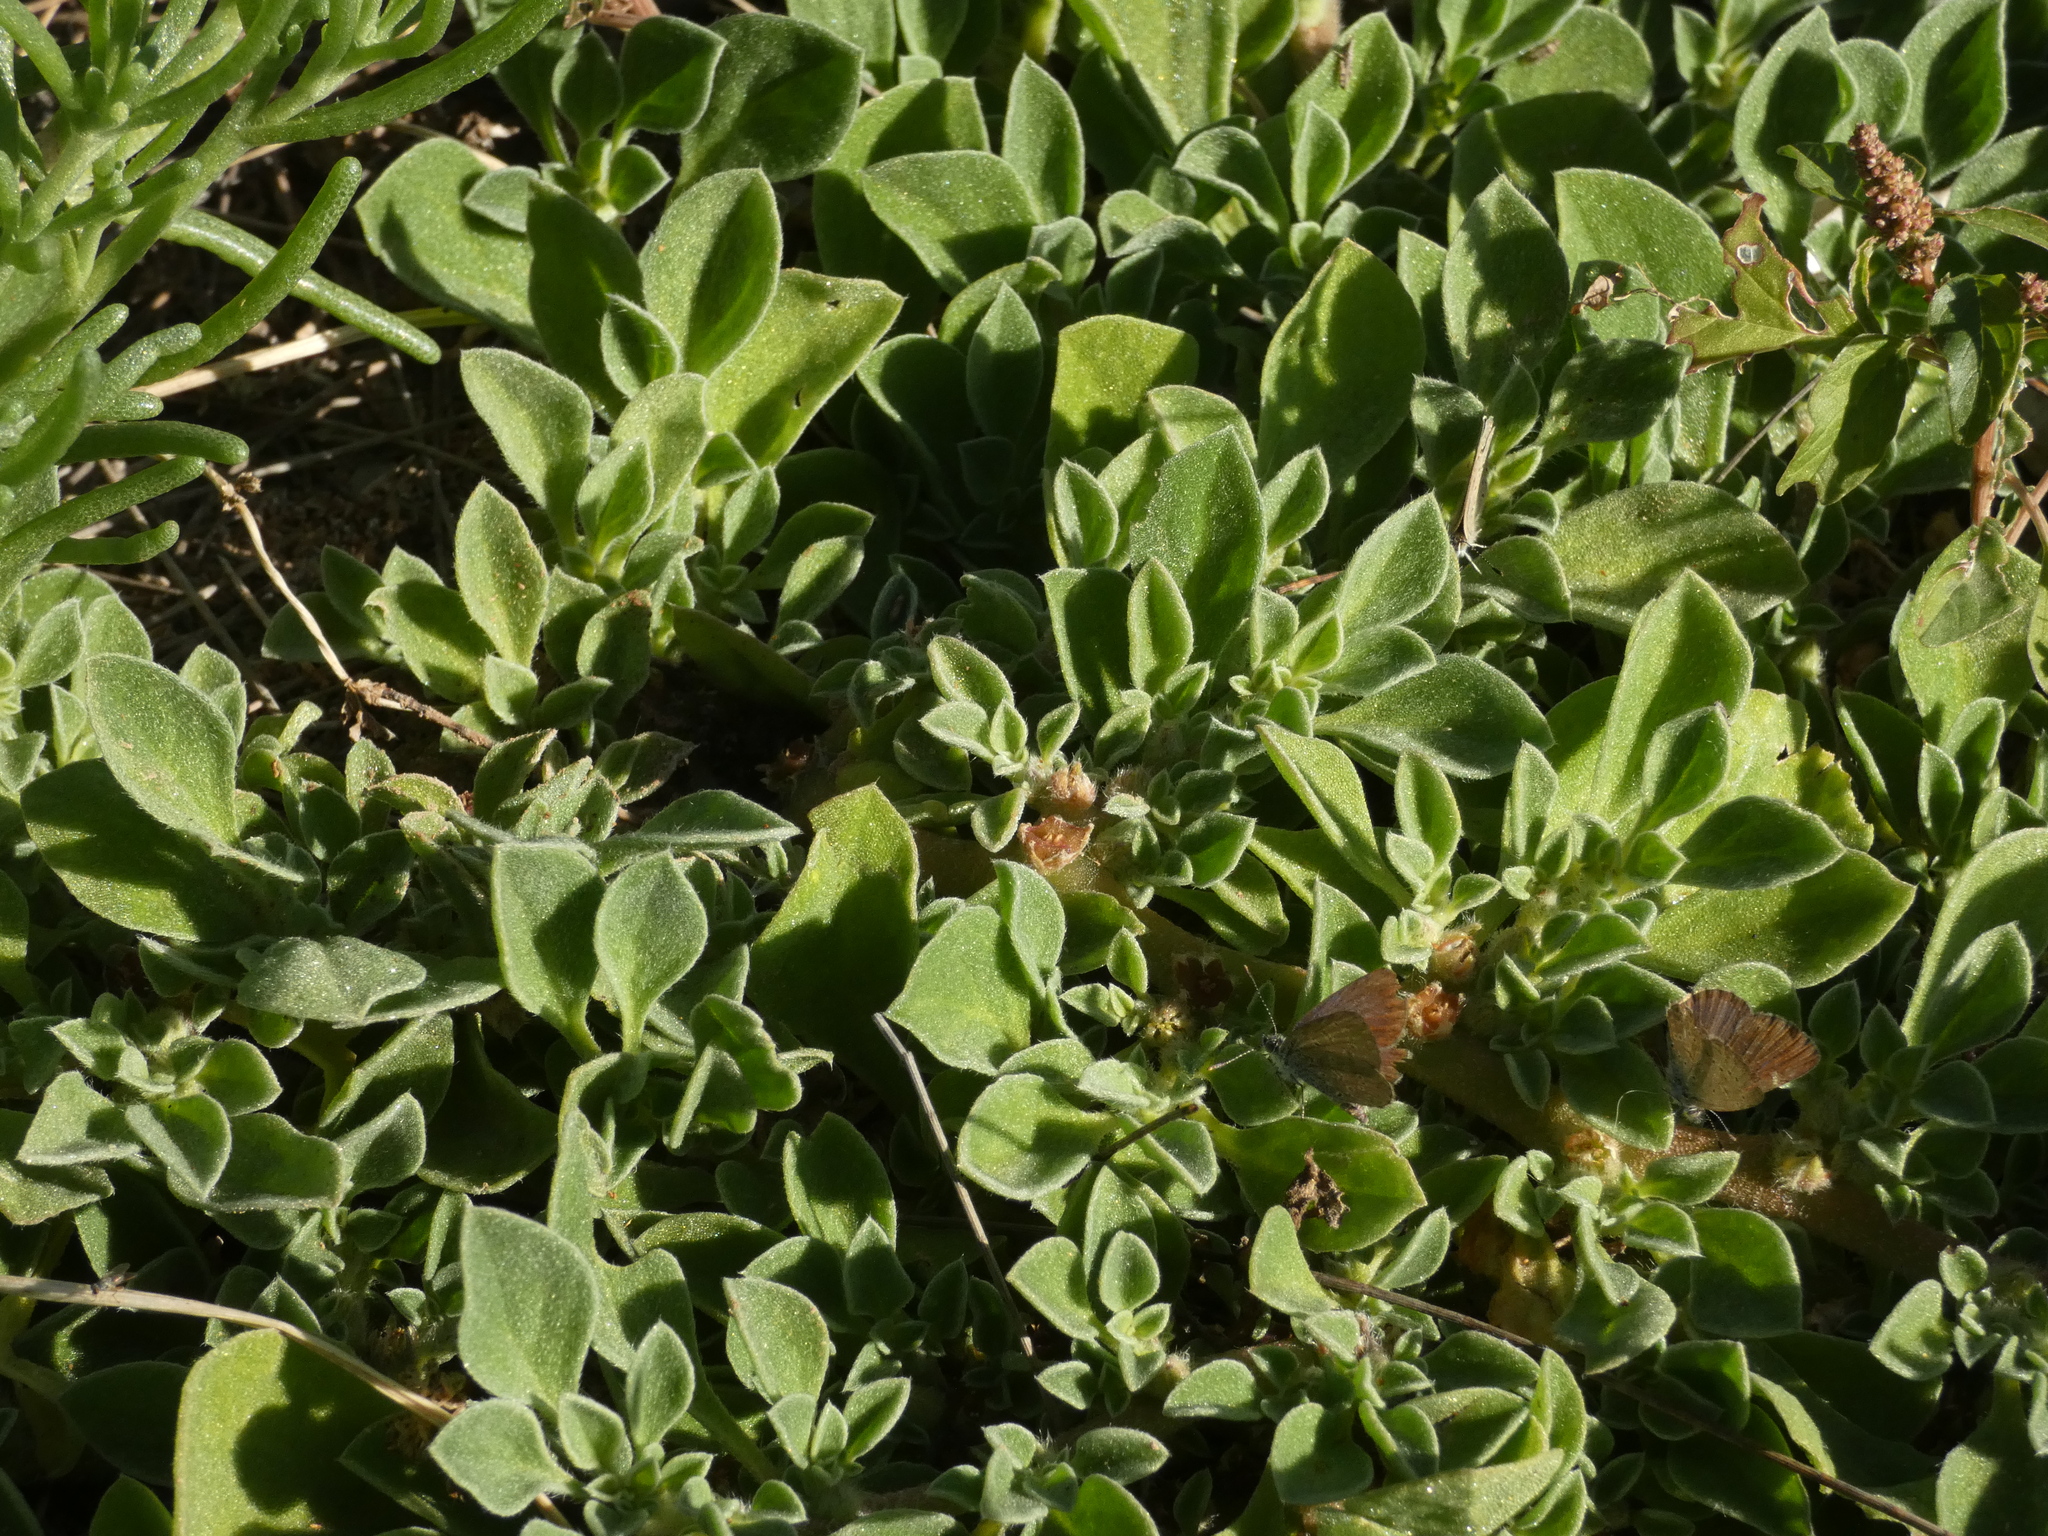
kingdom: Plantae
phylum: Tracheophyta
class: Magnoliopsida
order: Caryophyllales
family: Aizoaceae
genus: Aizoon
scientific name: Aizoon canariense
